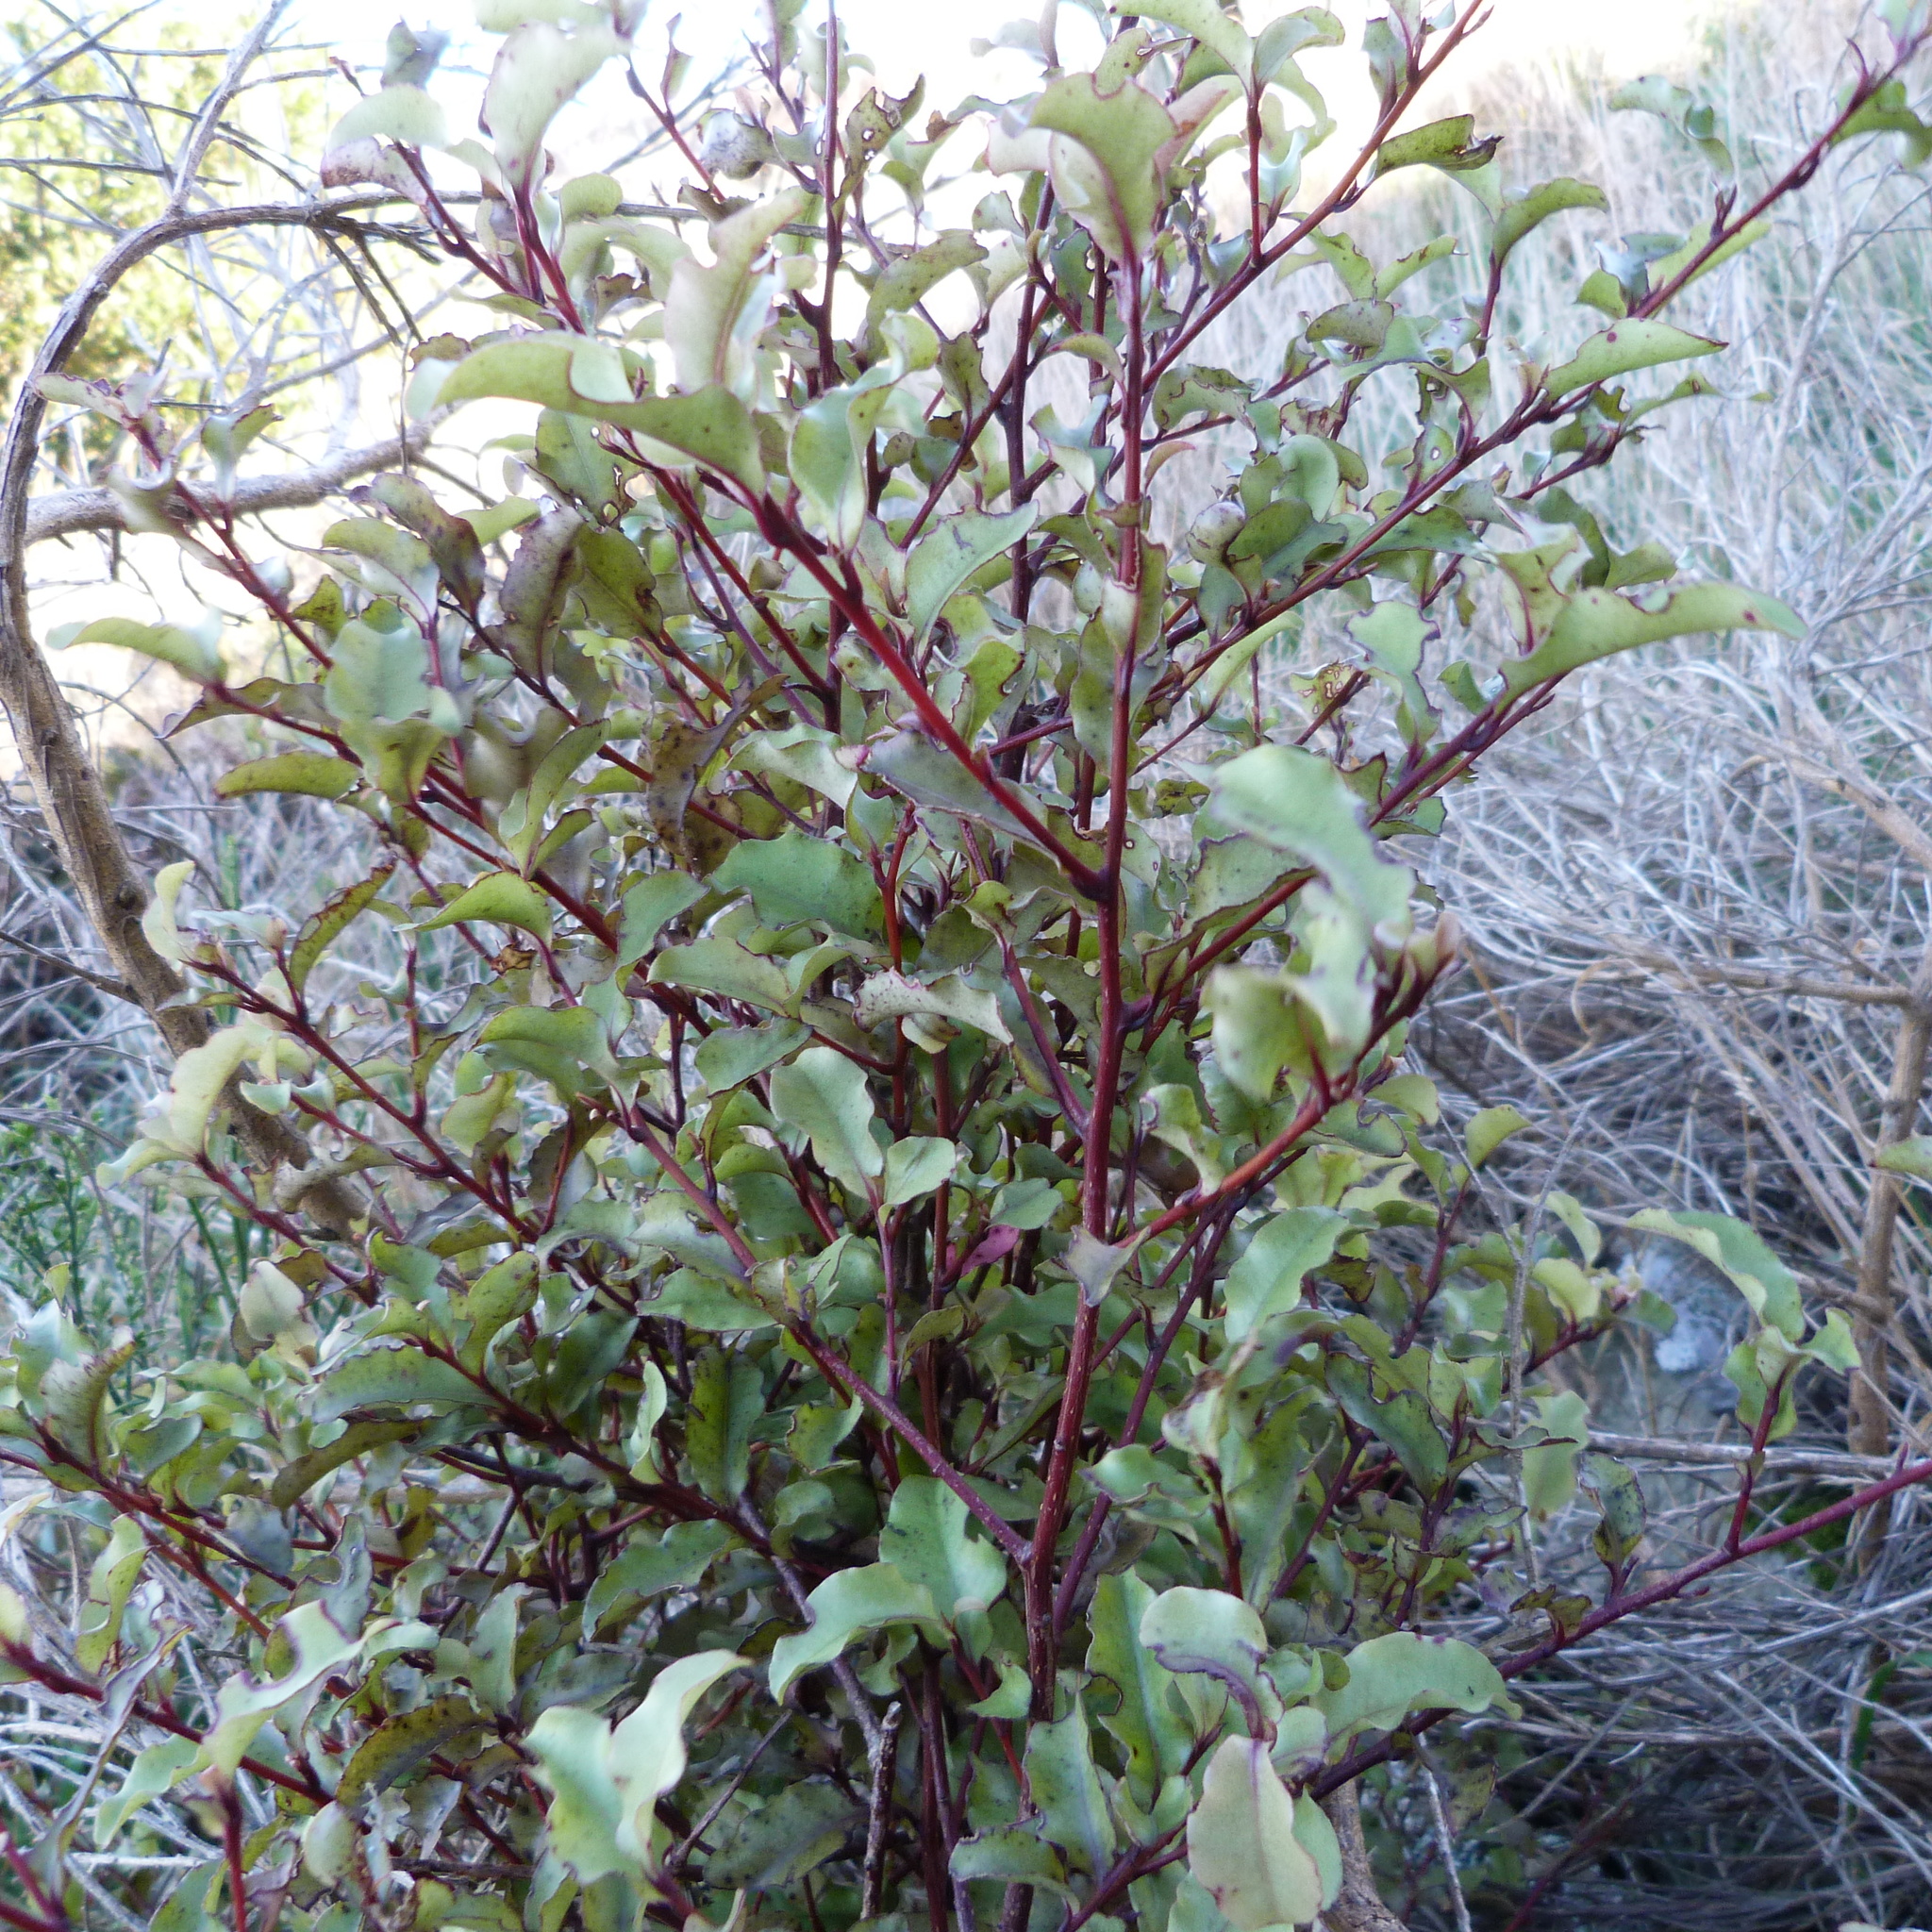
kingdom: Plantae
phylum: Tracheophyta
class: Magnoliopsida
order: Ericales
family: Primulaceae
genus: Myrsine
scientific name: Myrsine australis
